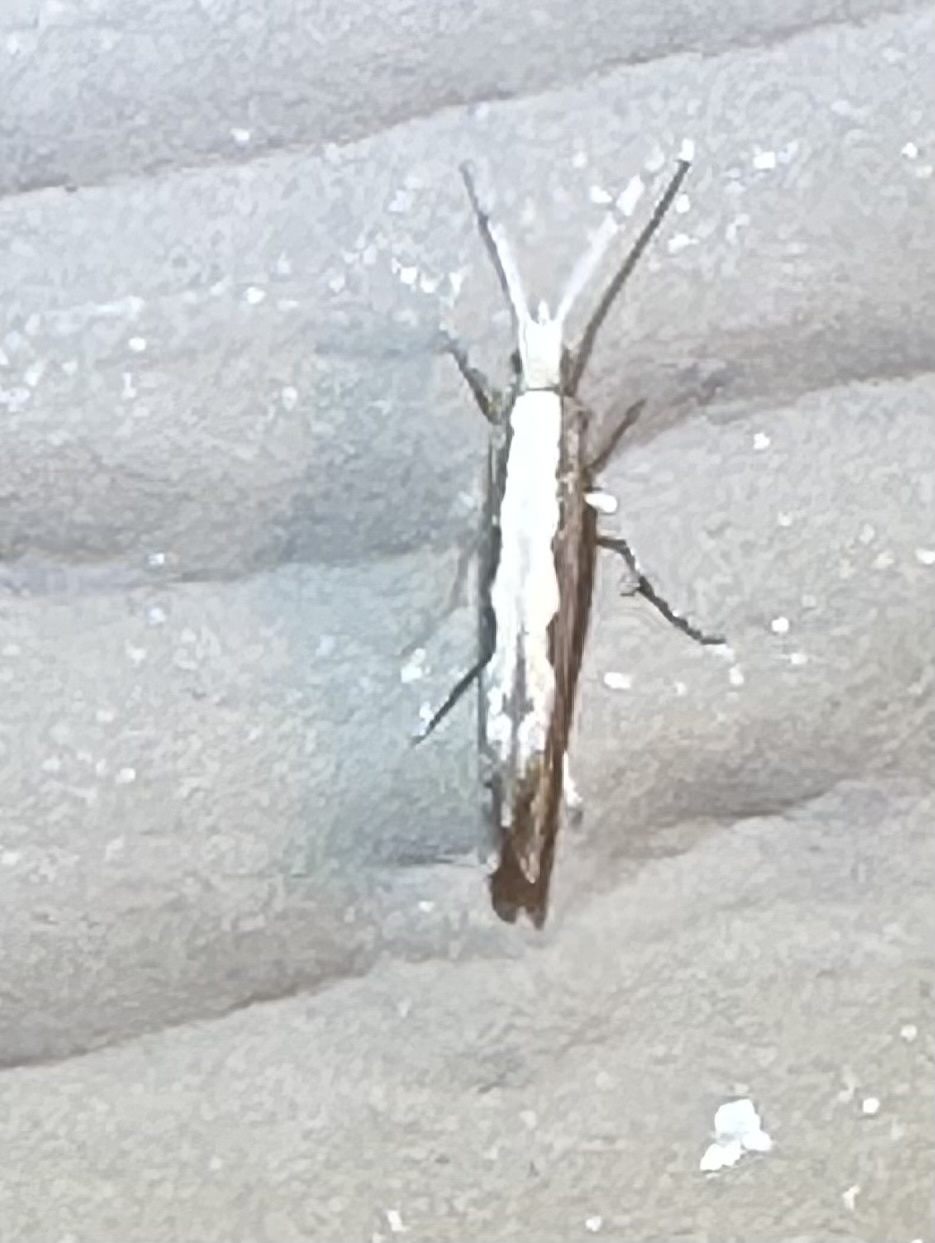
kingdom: Animalia
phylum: Arthropoda
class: Insecta
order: Lepidoptera
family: Plutellidae
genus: Plutella
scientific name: Plutella xylostella
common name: Diamond-back moth
